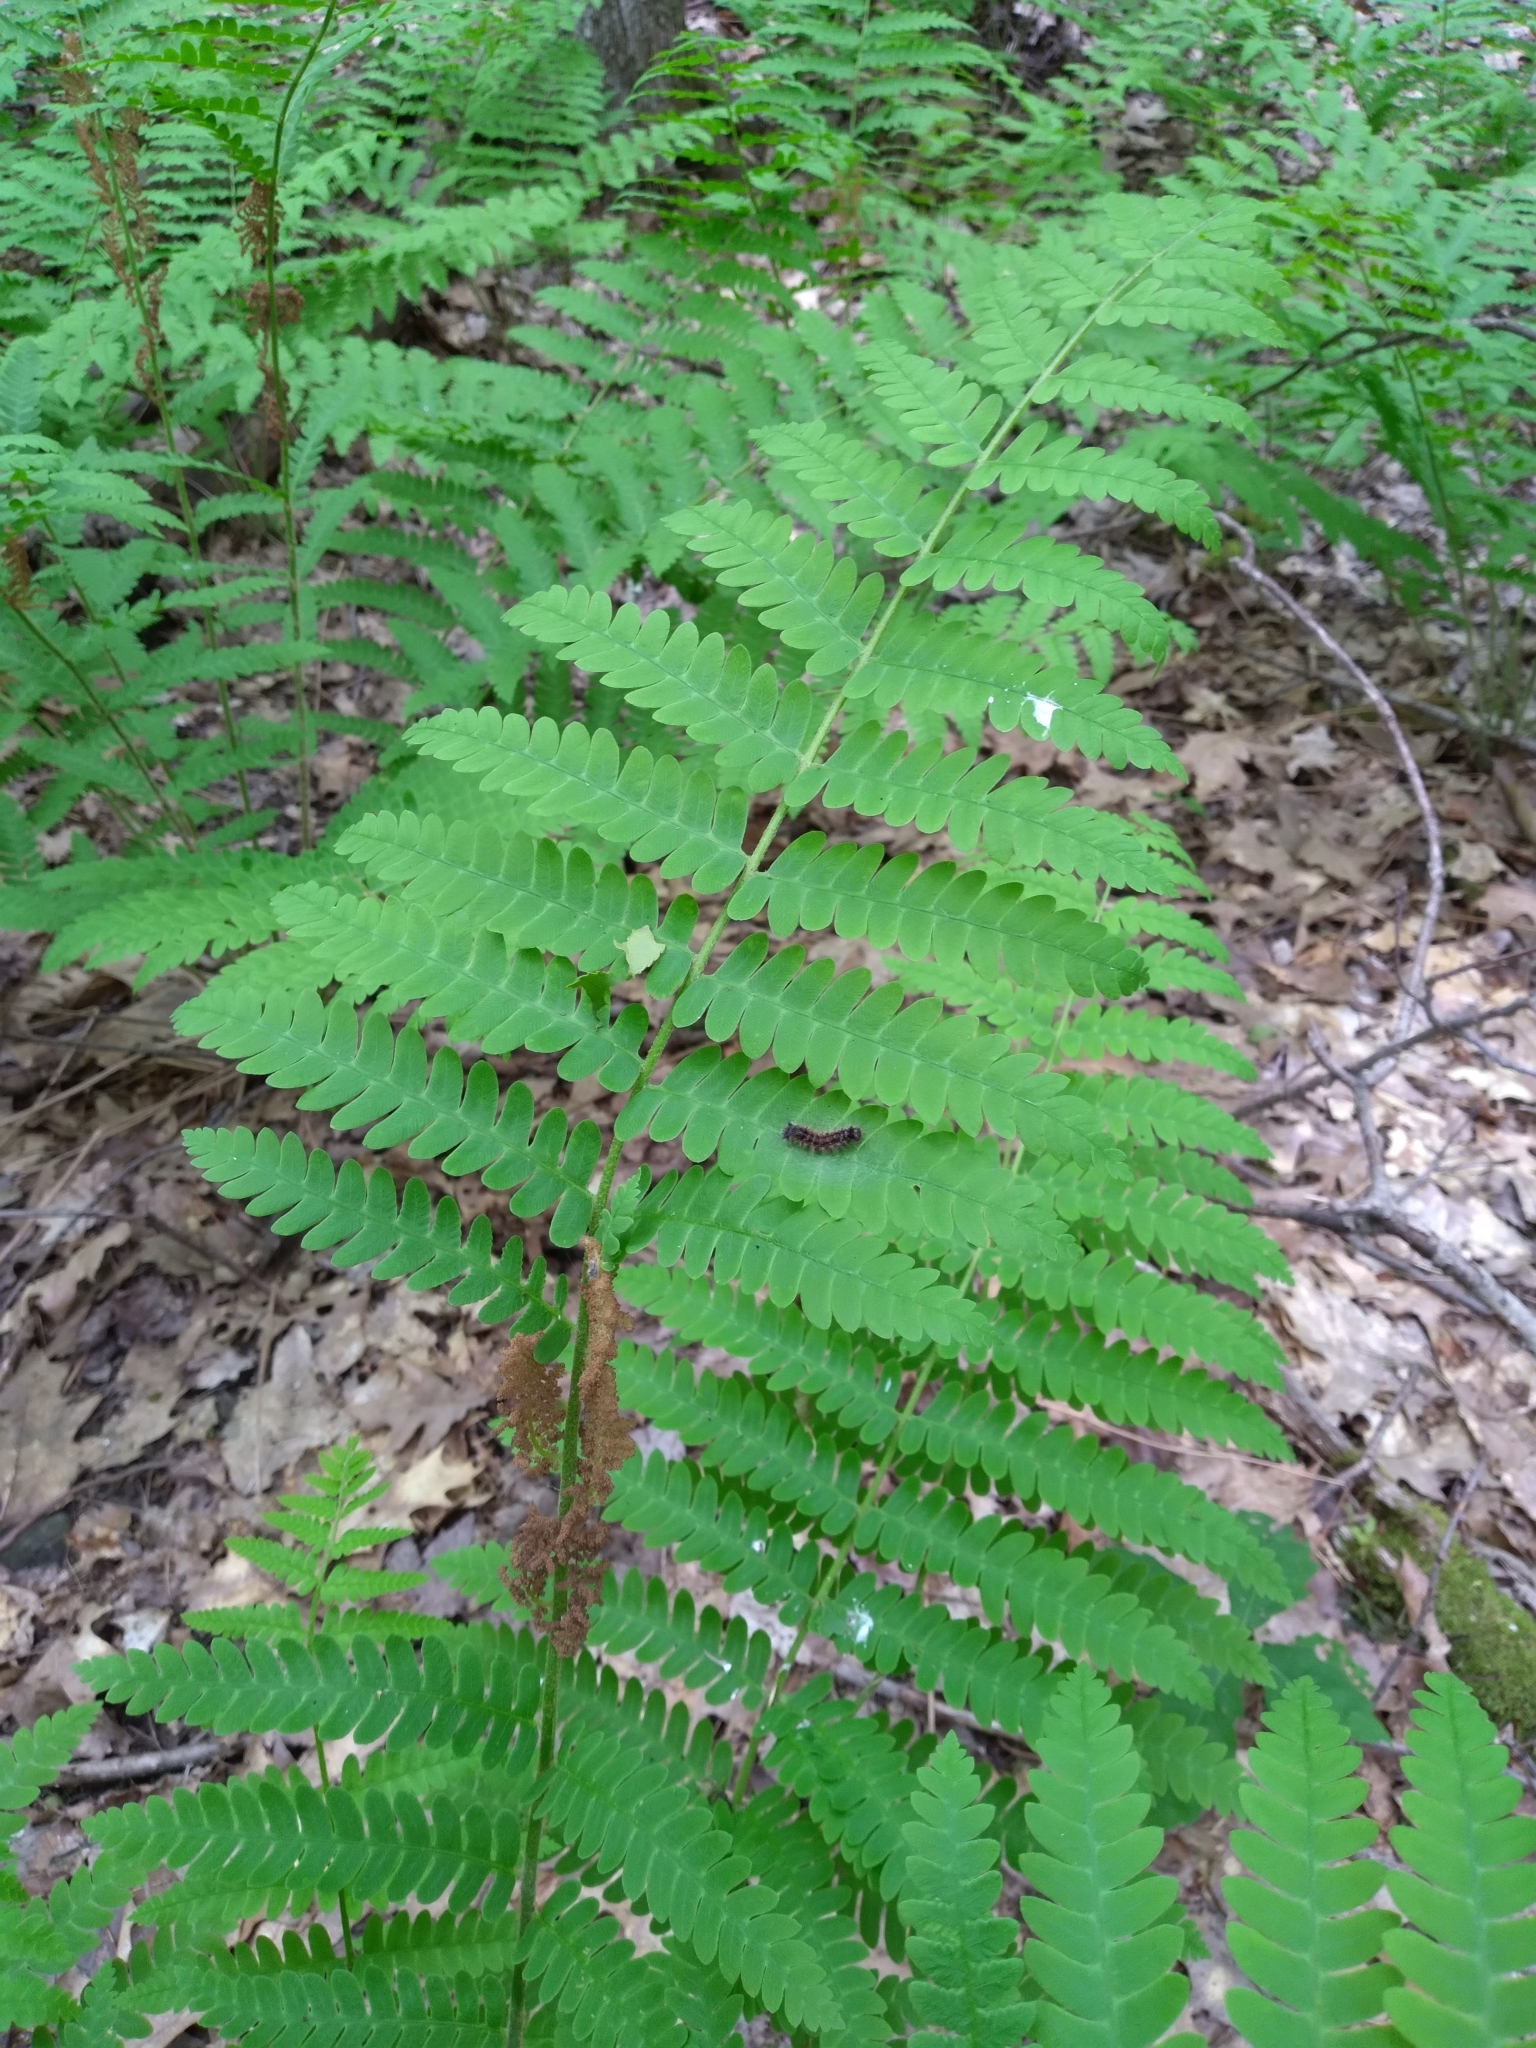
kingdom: Plantae
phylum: Tracheophyta
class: Polypodiopsida
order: Osmundales
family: Osmundaceae
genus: Claytosmunda
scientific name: Claytosmunda claytoniana
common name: Clayton's fern
